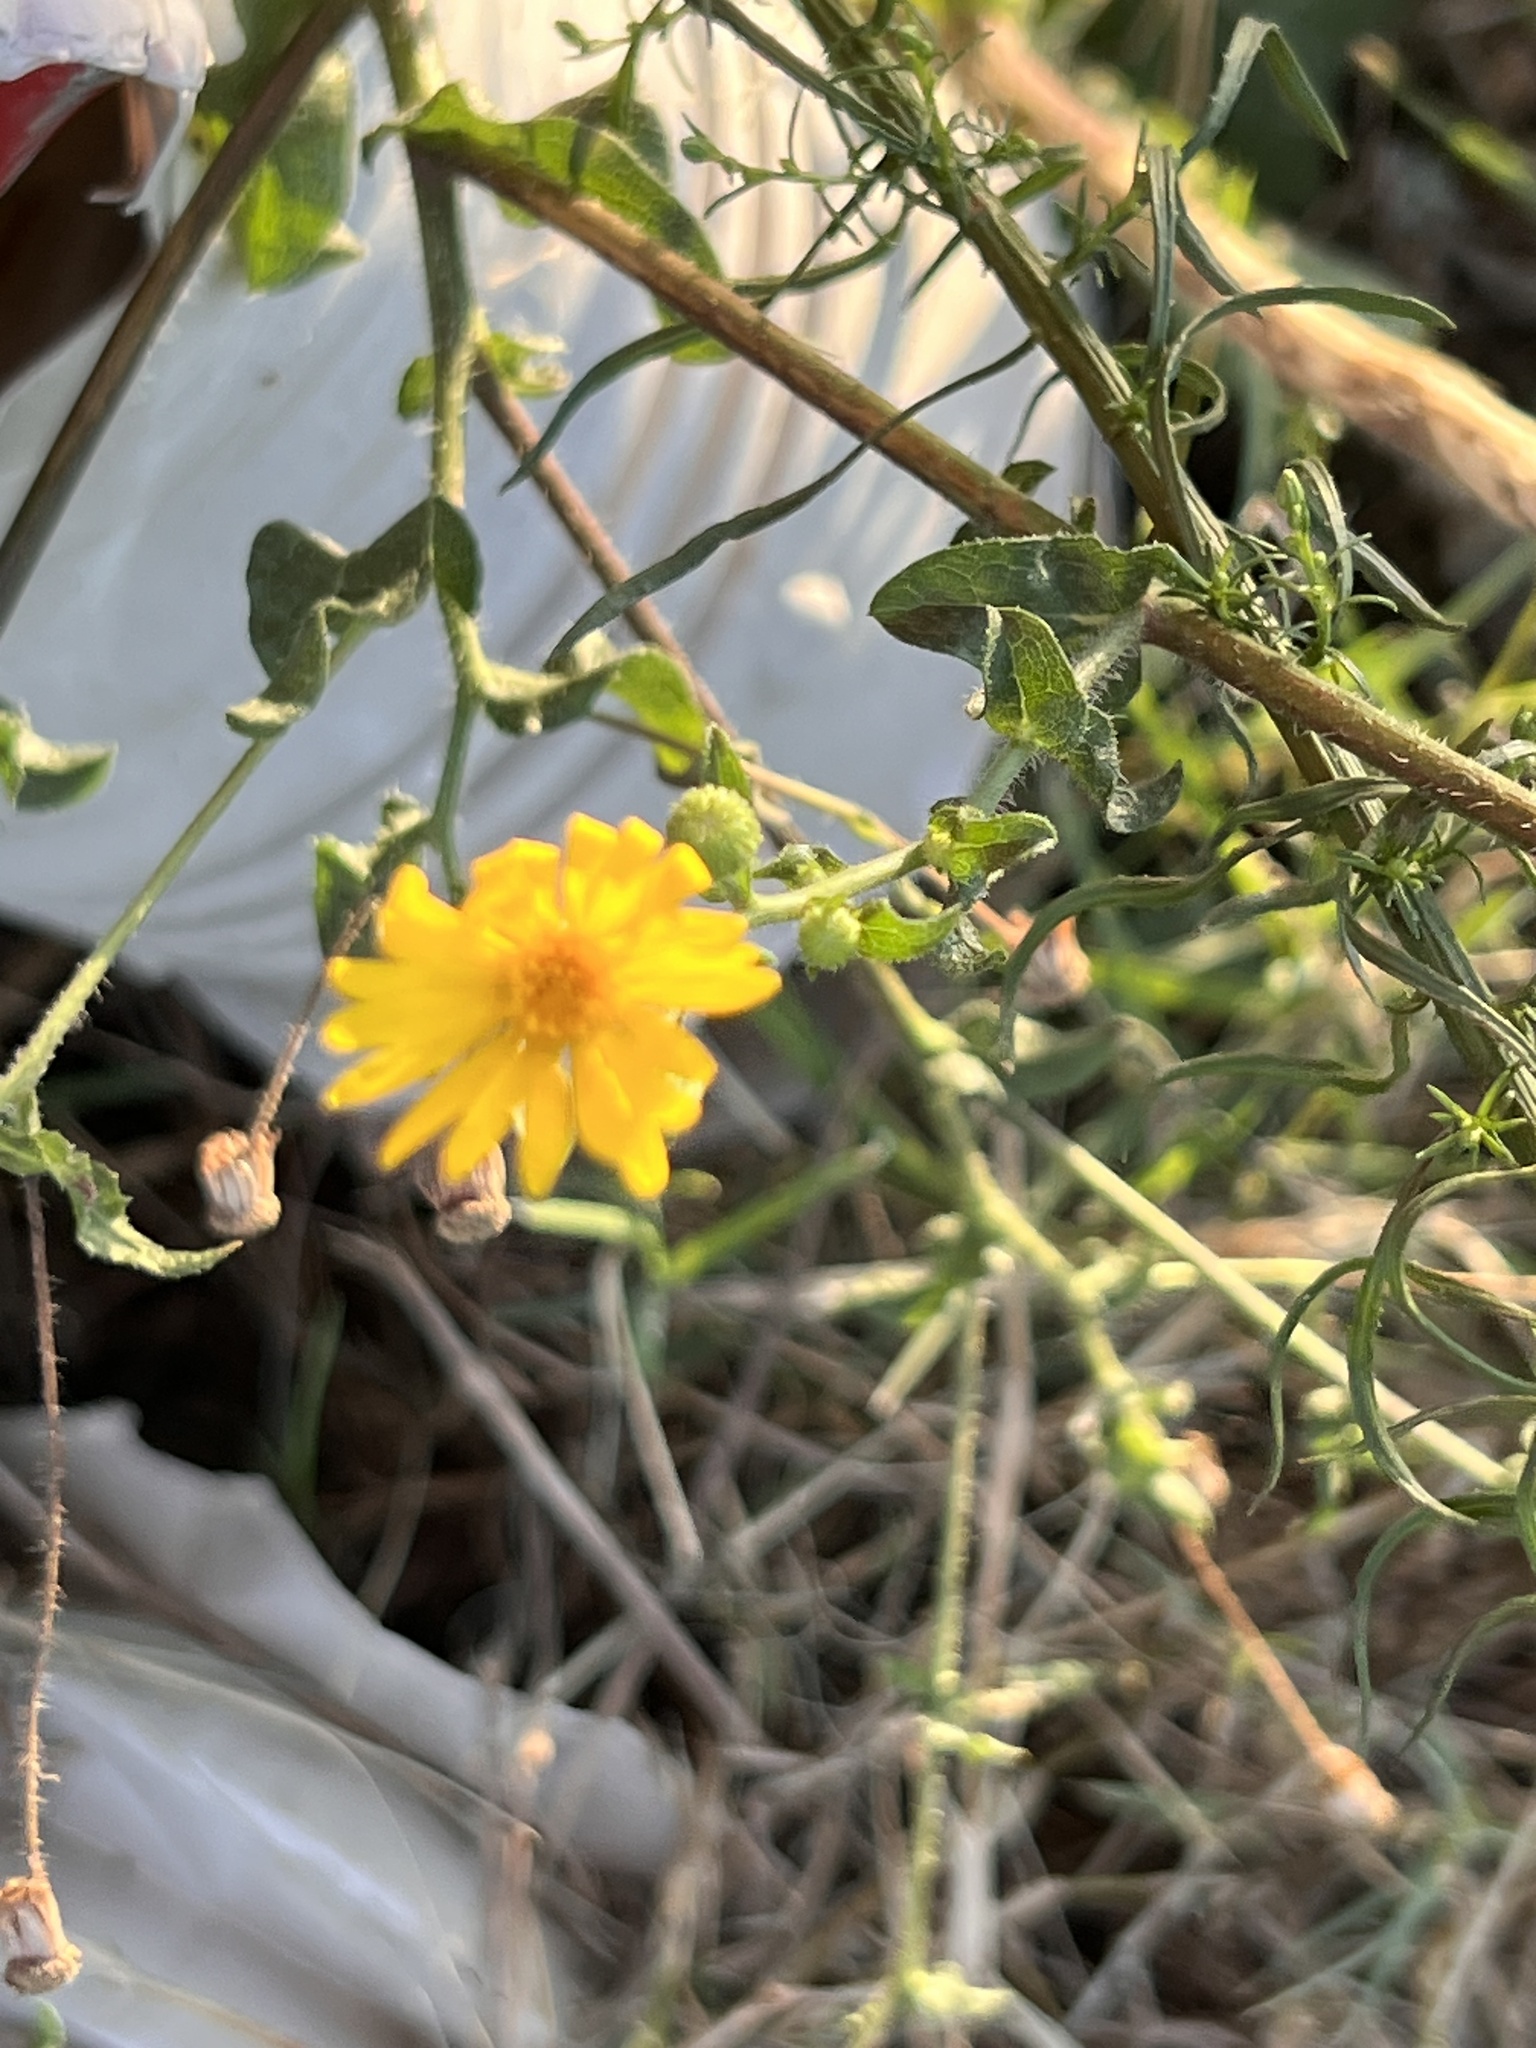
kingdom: Plantae
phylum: Tracheophyta
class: Magnoliopsida
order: Asterales
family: Asteraceae
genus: Heterotheca
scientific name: Heterotheca subaxillaris
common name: Camphorweed
